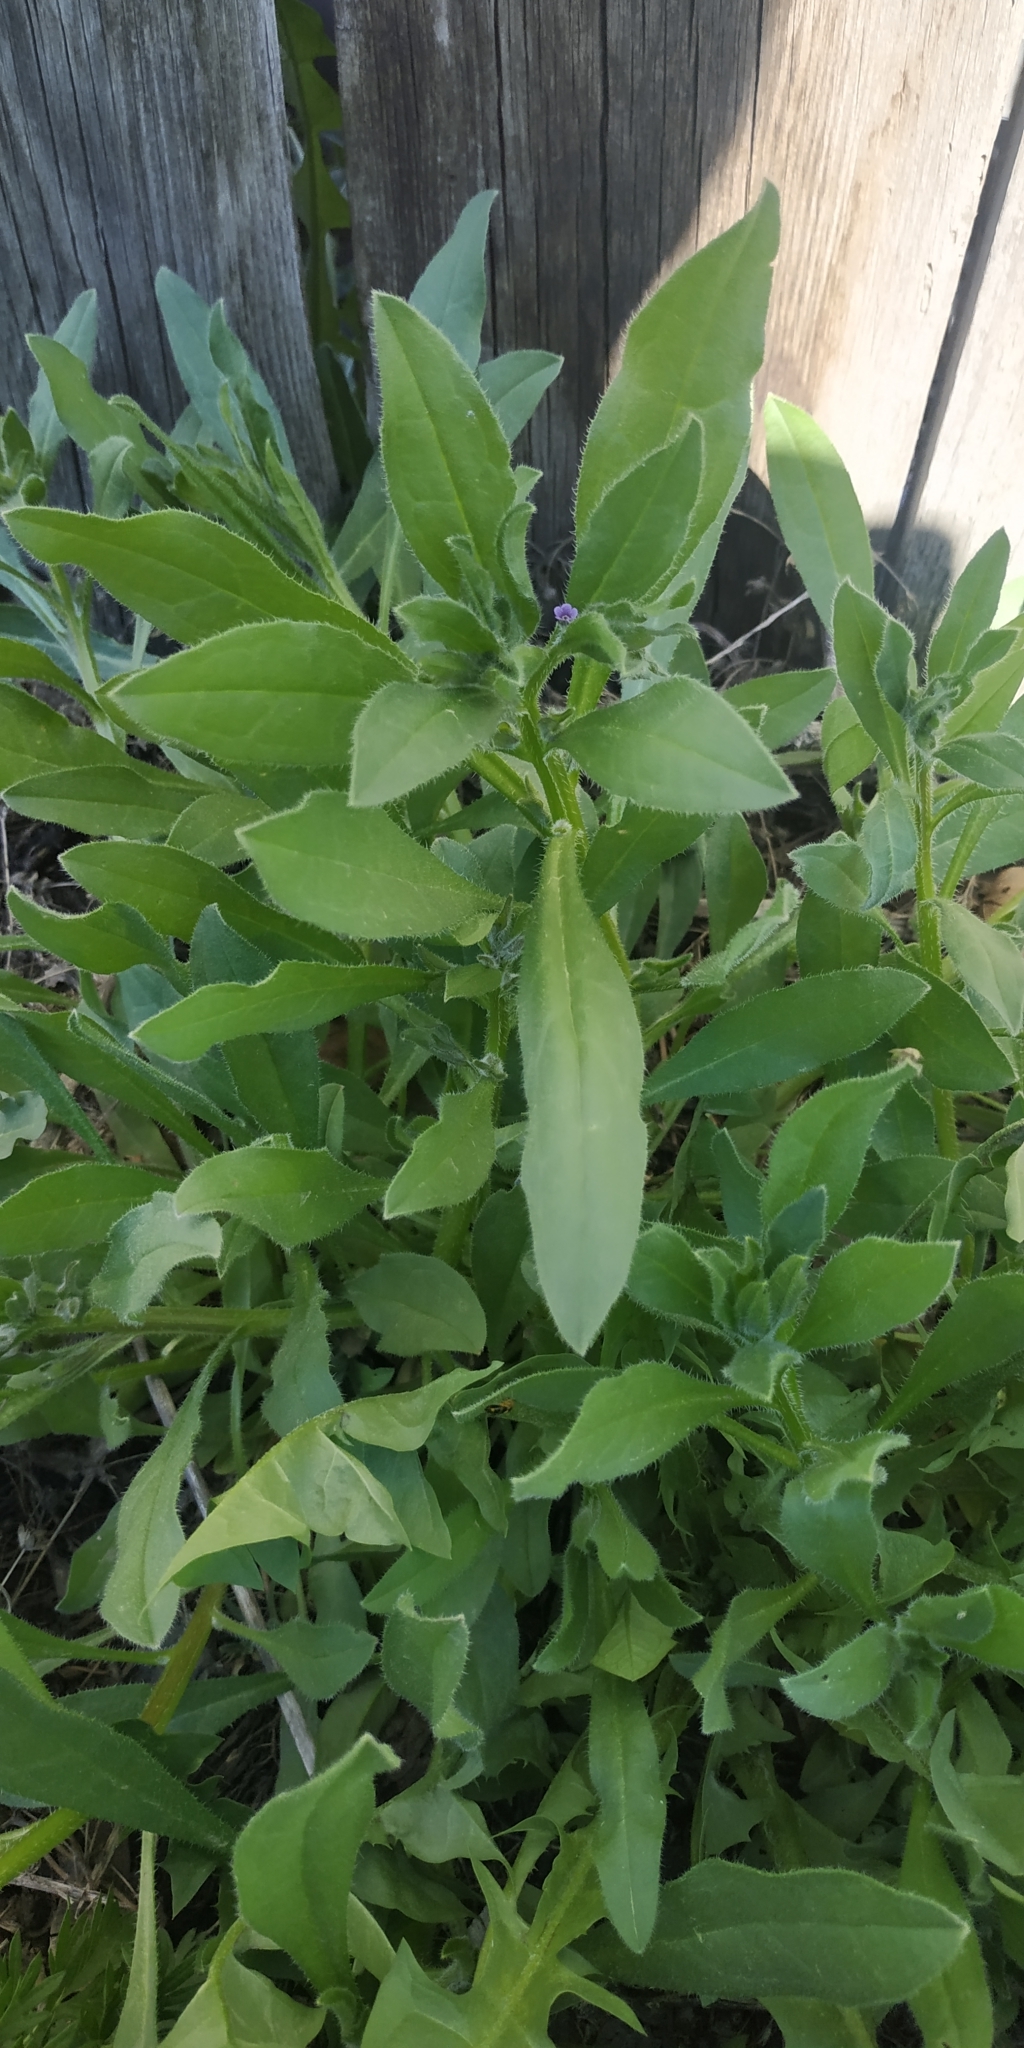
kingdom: Plantae
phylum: Tracheophyta
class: Magnoliopsida
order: Boraginales
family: Boraginaceae
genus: Asperugo
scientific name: Asperugo procumbens
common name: Madwort
